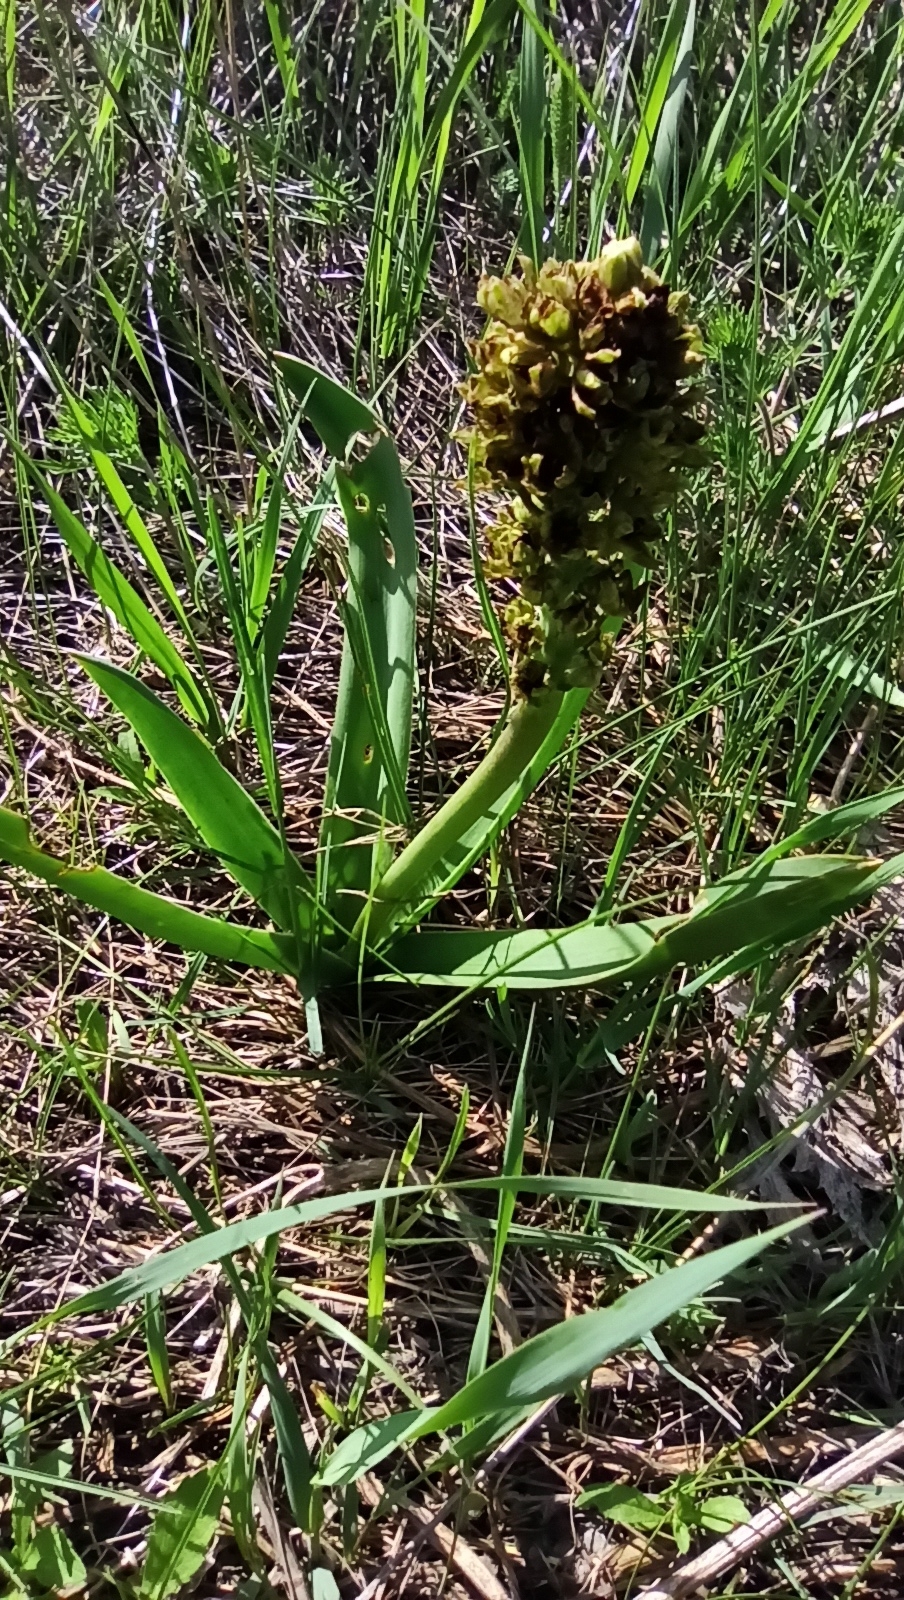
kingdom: Plantae
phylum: Tracheophyta
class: Liliopsida
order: Asparagales
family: Asparagaceae
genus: Bellevalia
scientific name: Bellevalia speciosa
